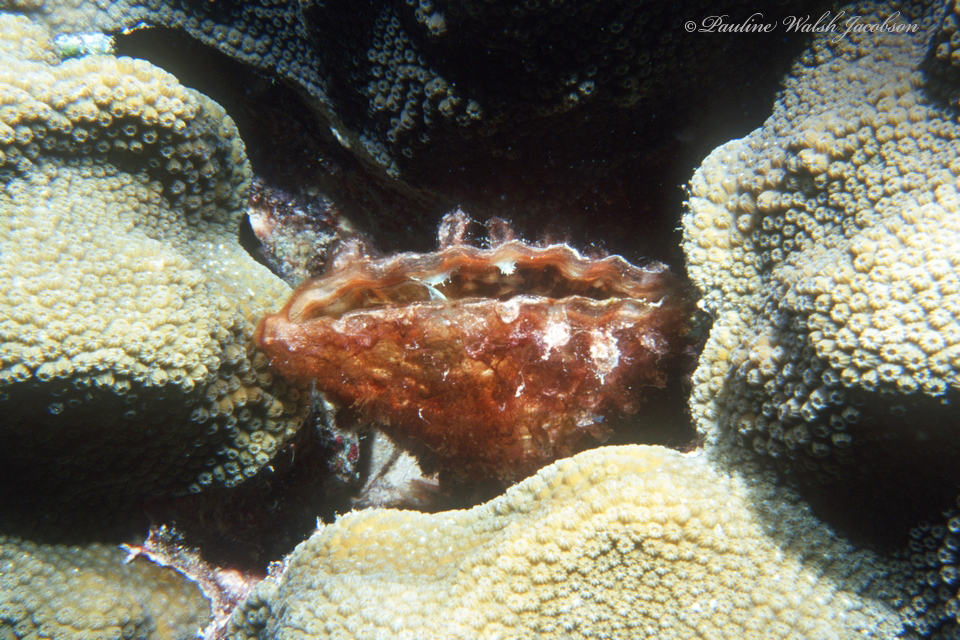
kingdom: Animalia
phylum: Mollusca
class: Bivalvia
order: Ostreida
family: Pinnidae
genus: Pinna
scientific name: Pinna carnea
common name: Amber penshell
